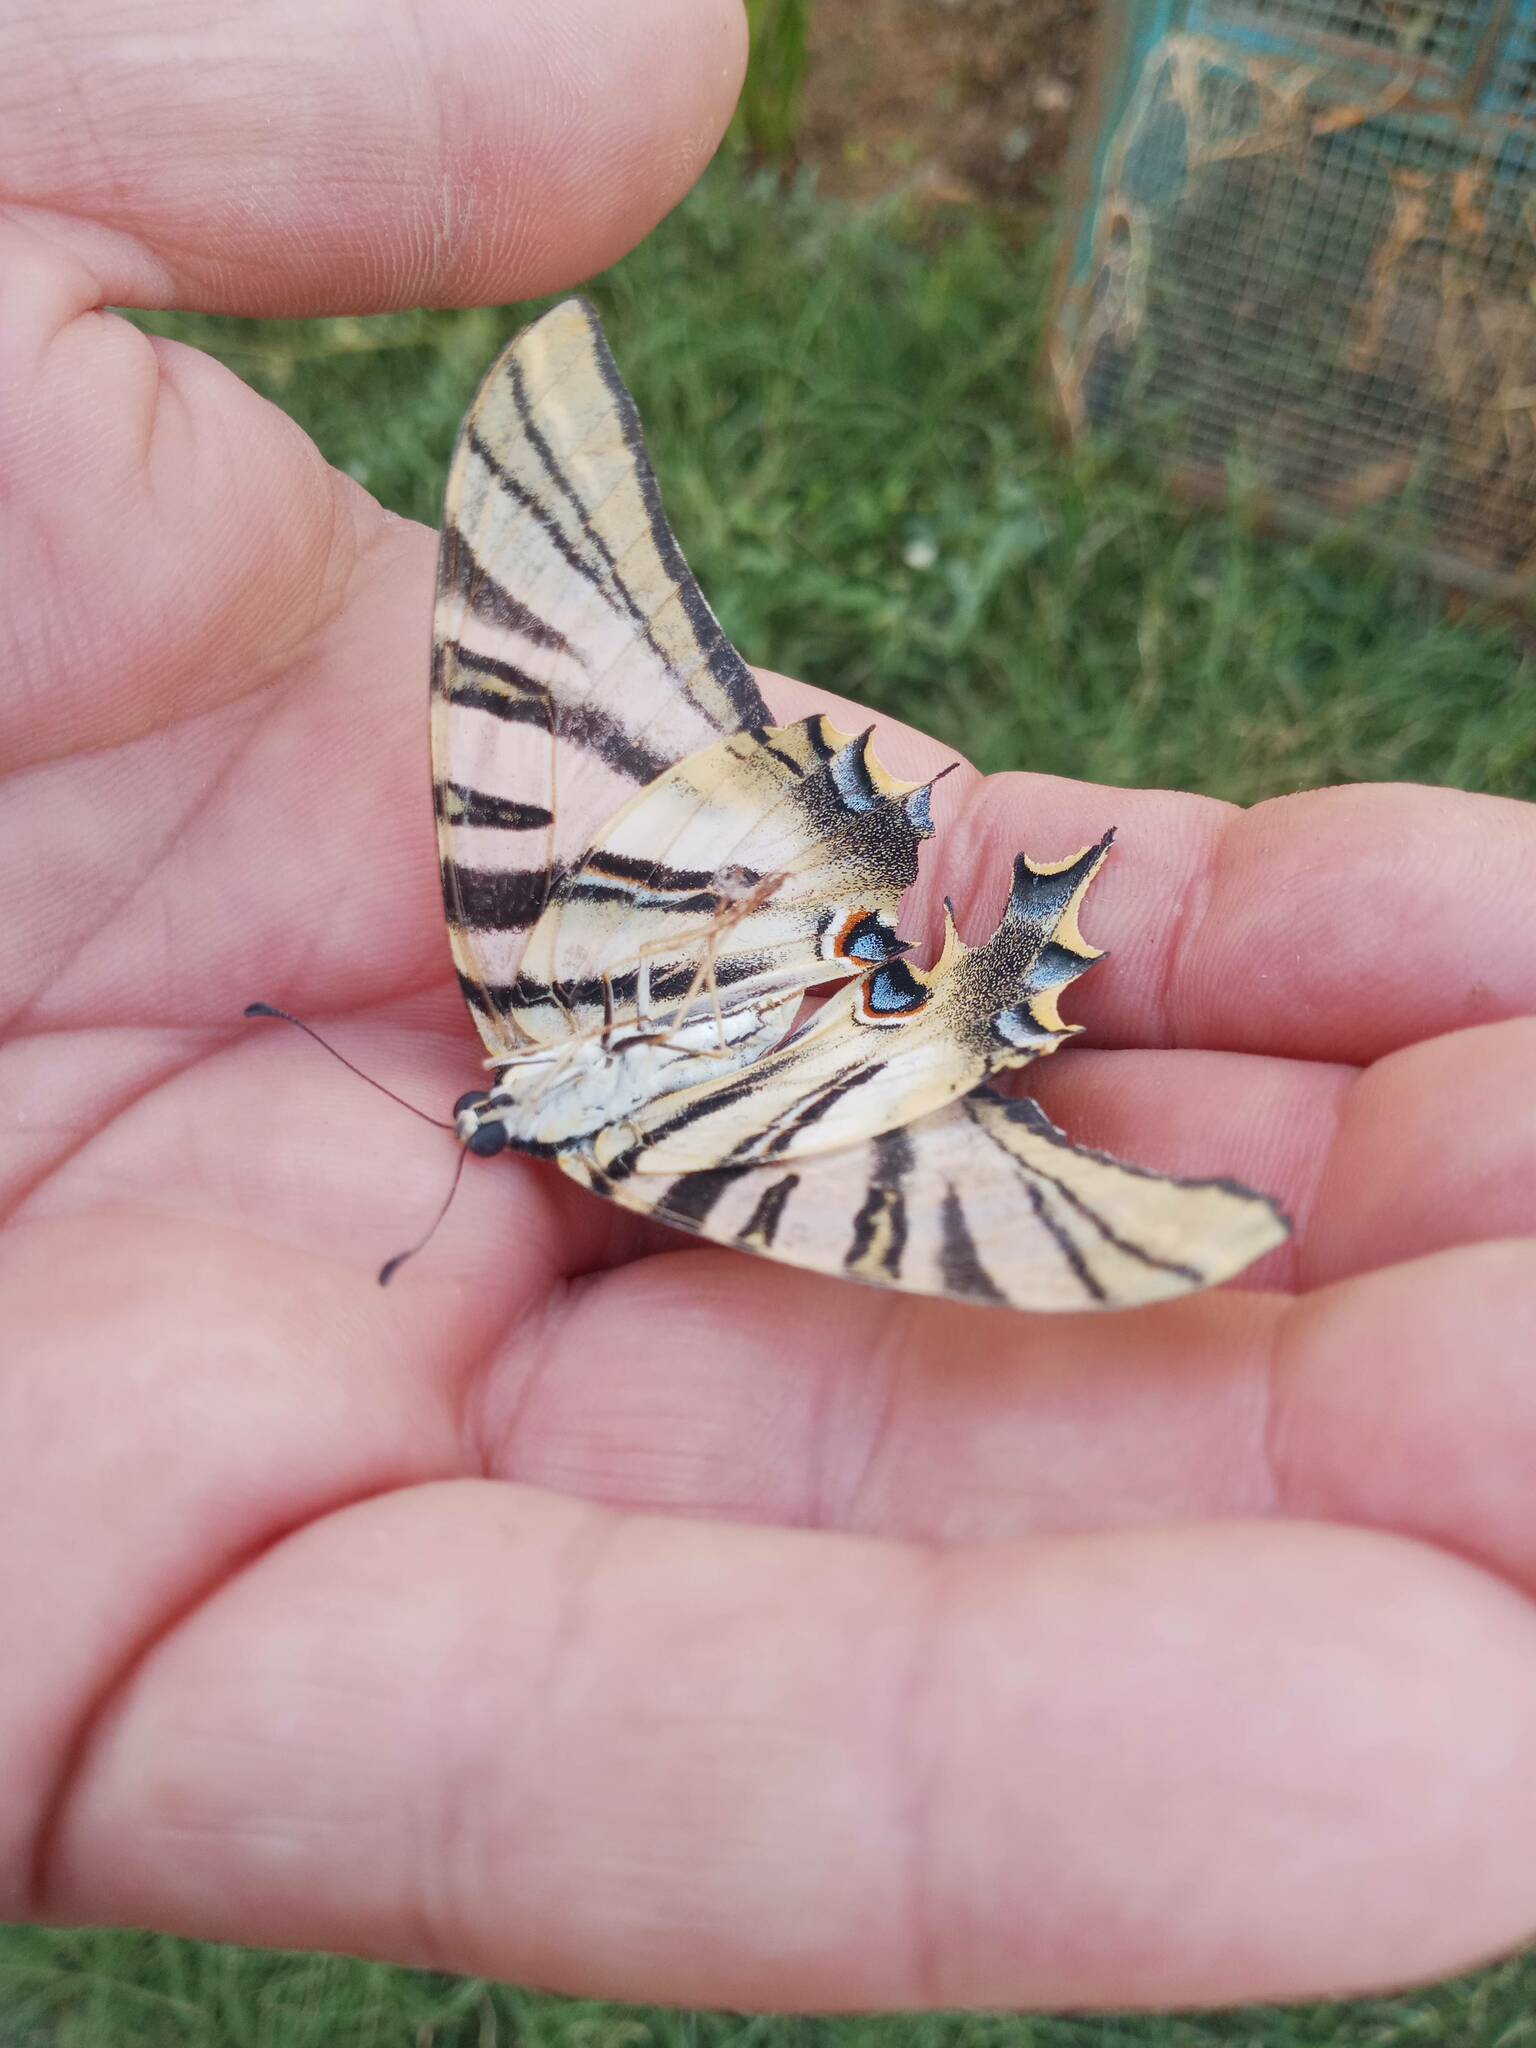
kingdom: Animalia
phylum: Arthropoda
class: Insecta
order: Lepidoptera
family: Papilionidae
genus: Iphiclides
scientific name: Iphiclides feisthamelii
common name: Iberian scarce swallowtail
